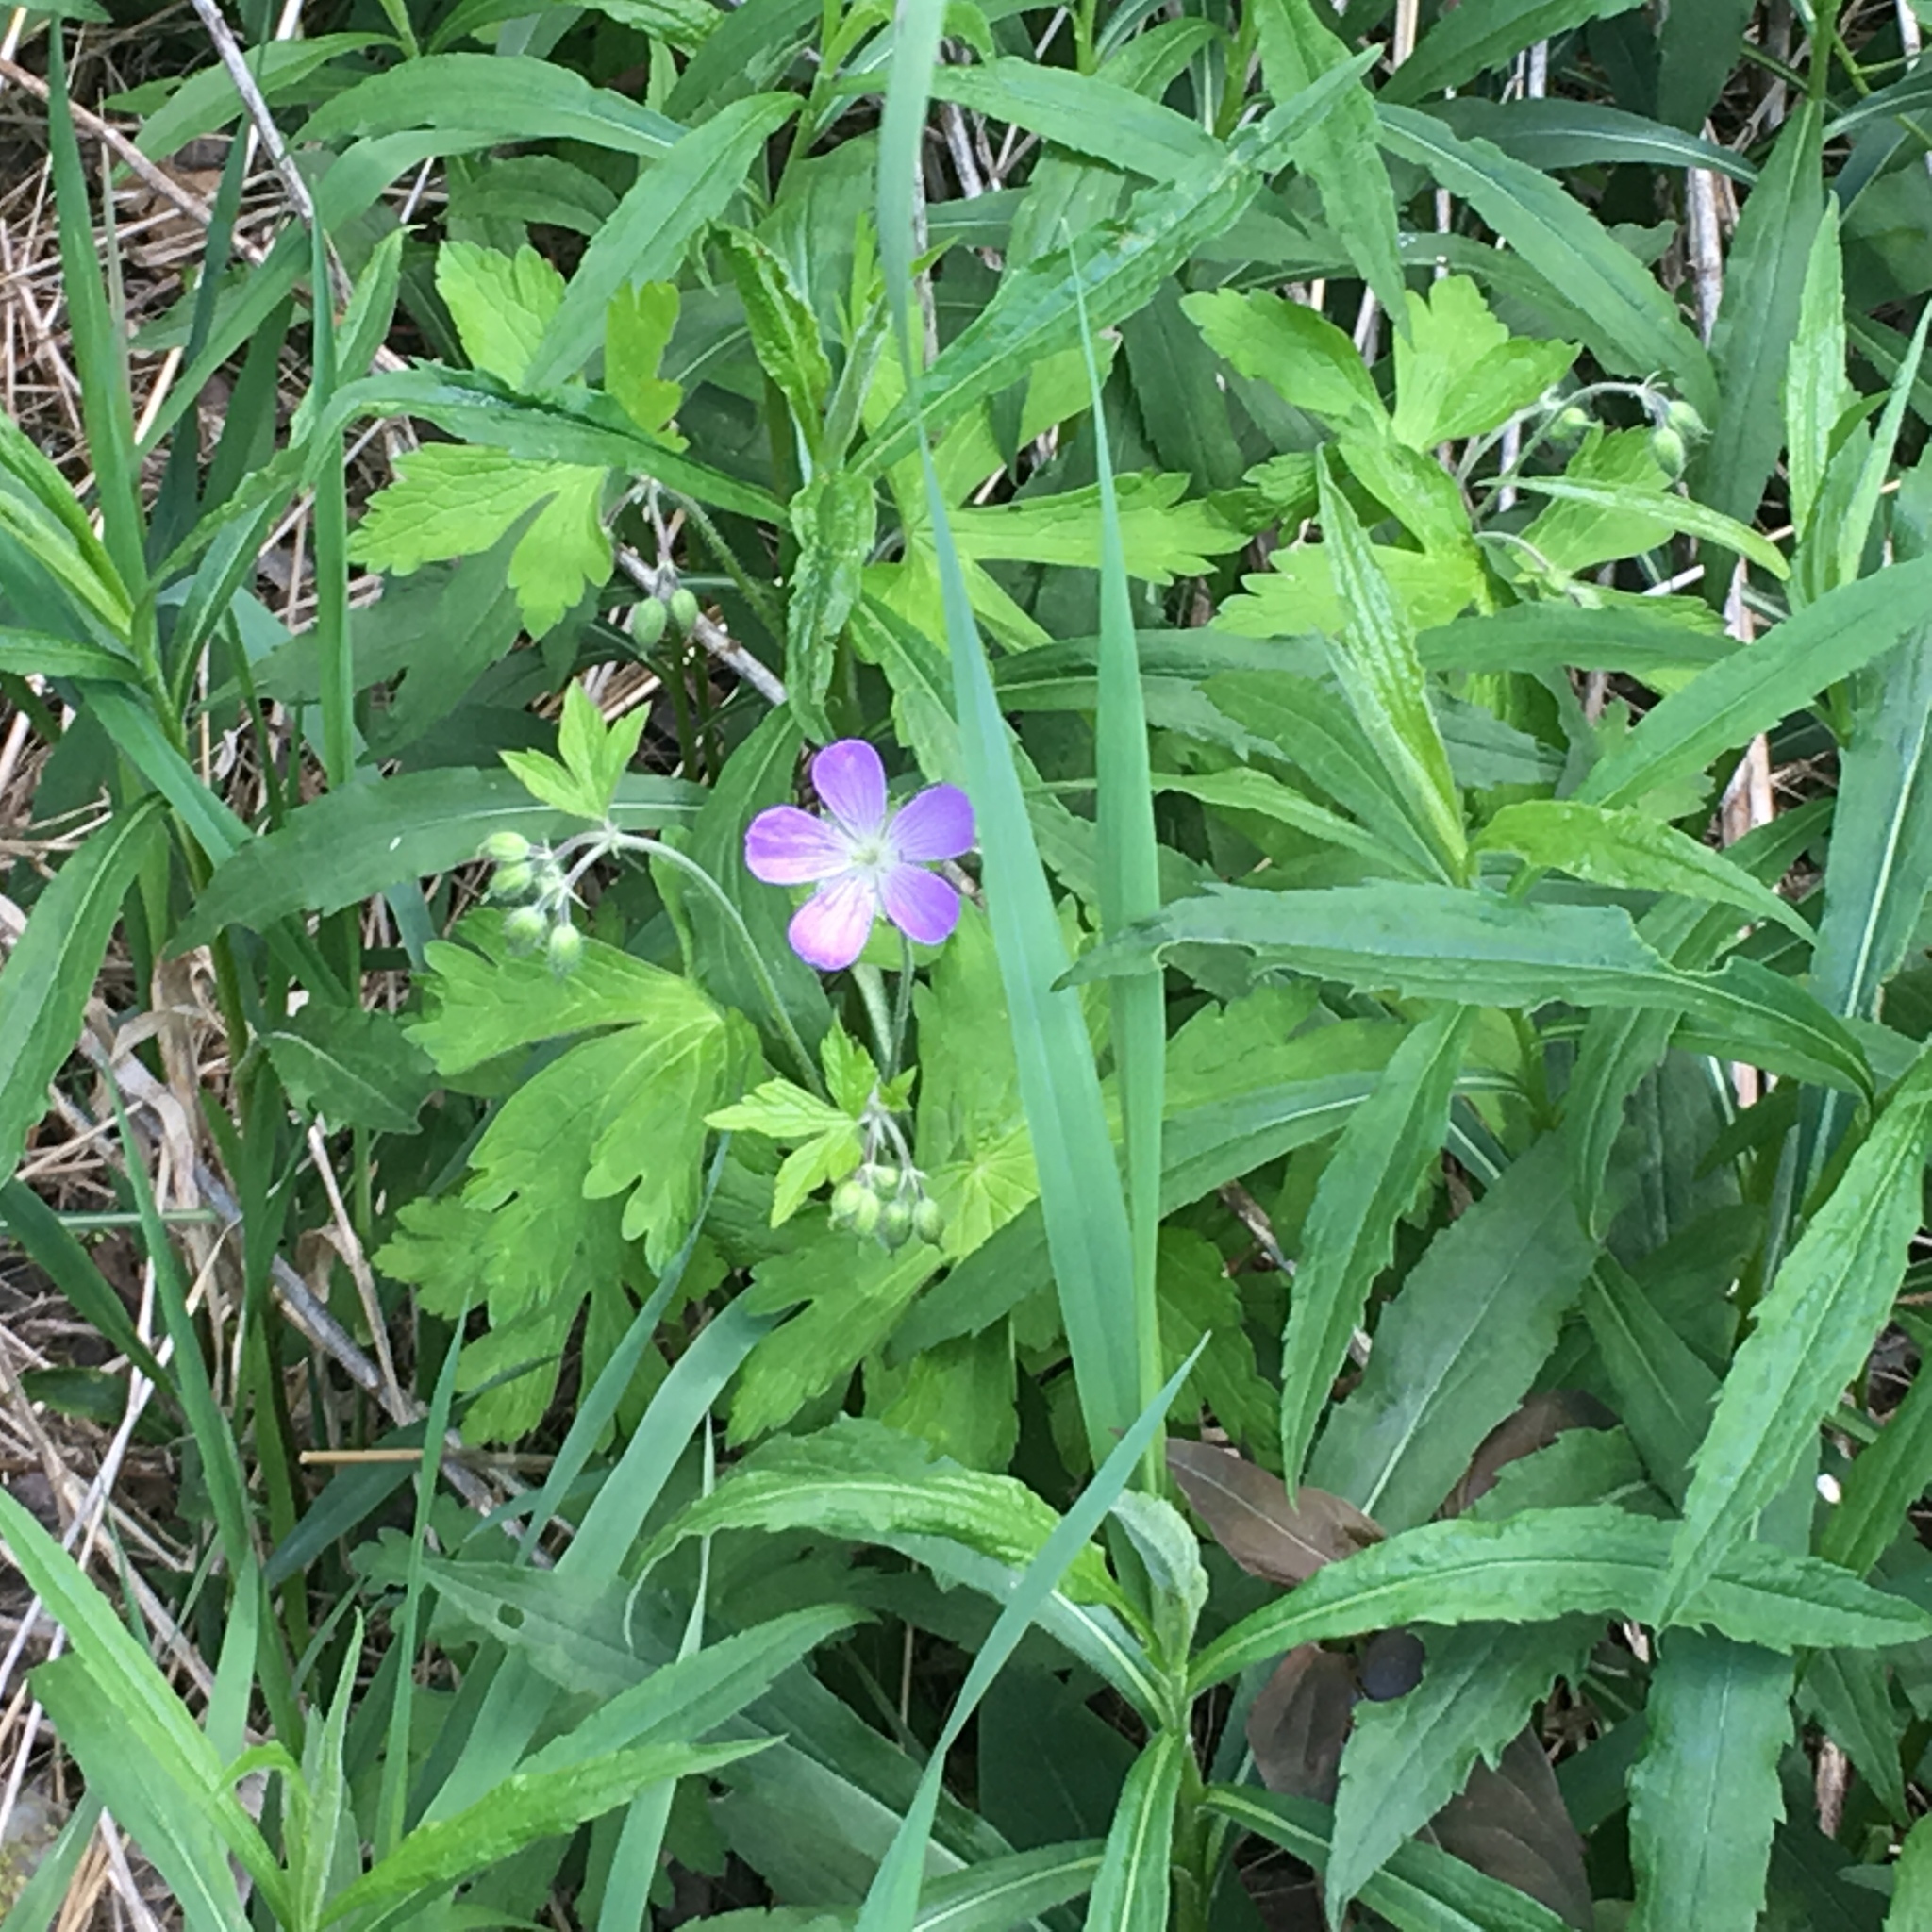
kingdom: Plantae
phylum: Tracheophyta
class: Magnoliopsida
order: Geraniales
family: Geraniaceae
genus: Geranium
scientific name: Geranium maculatum
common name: Spotted geranium
